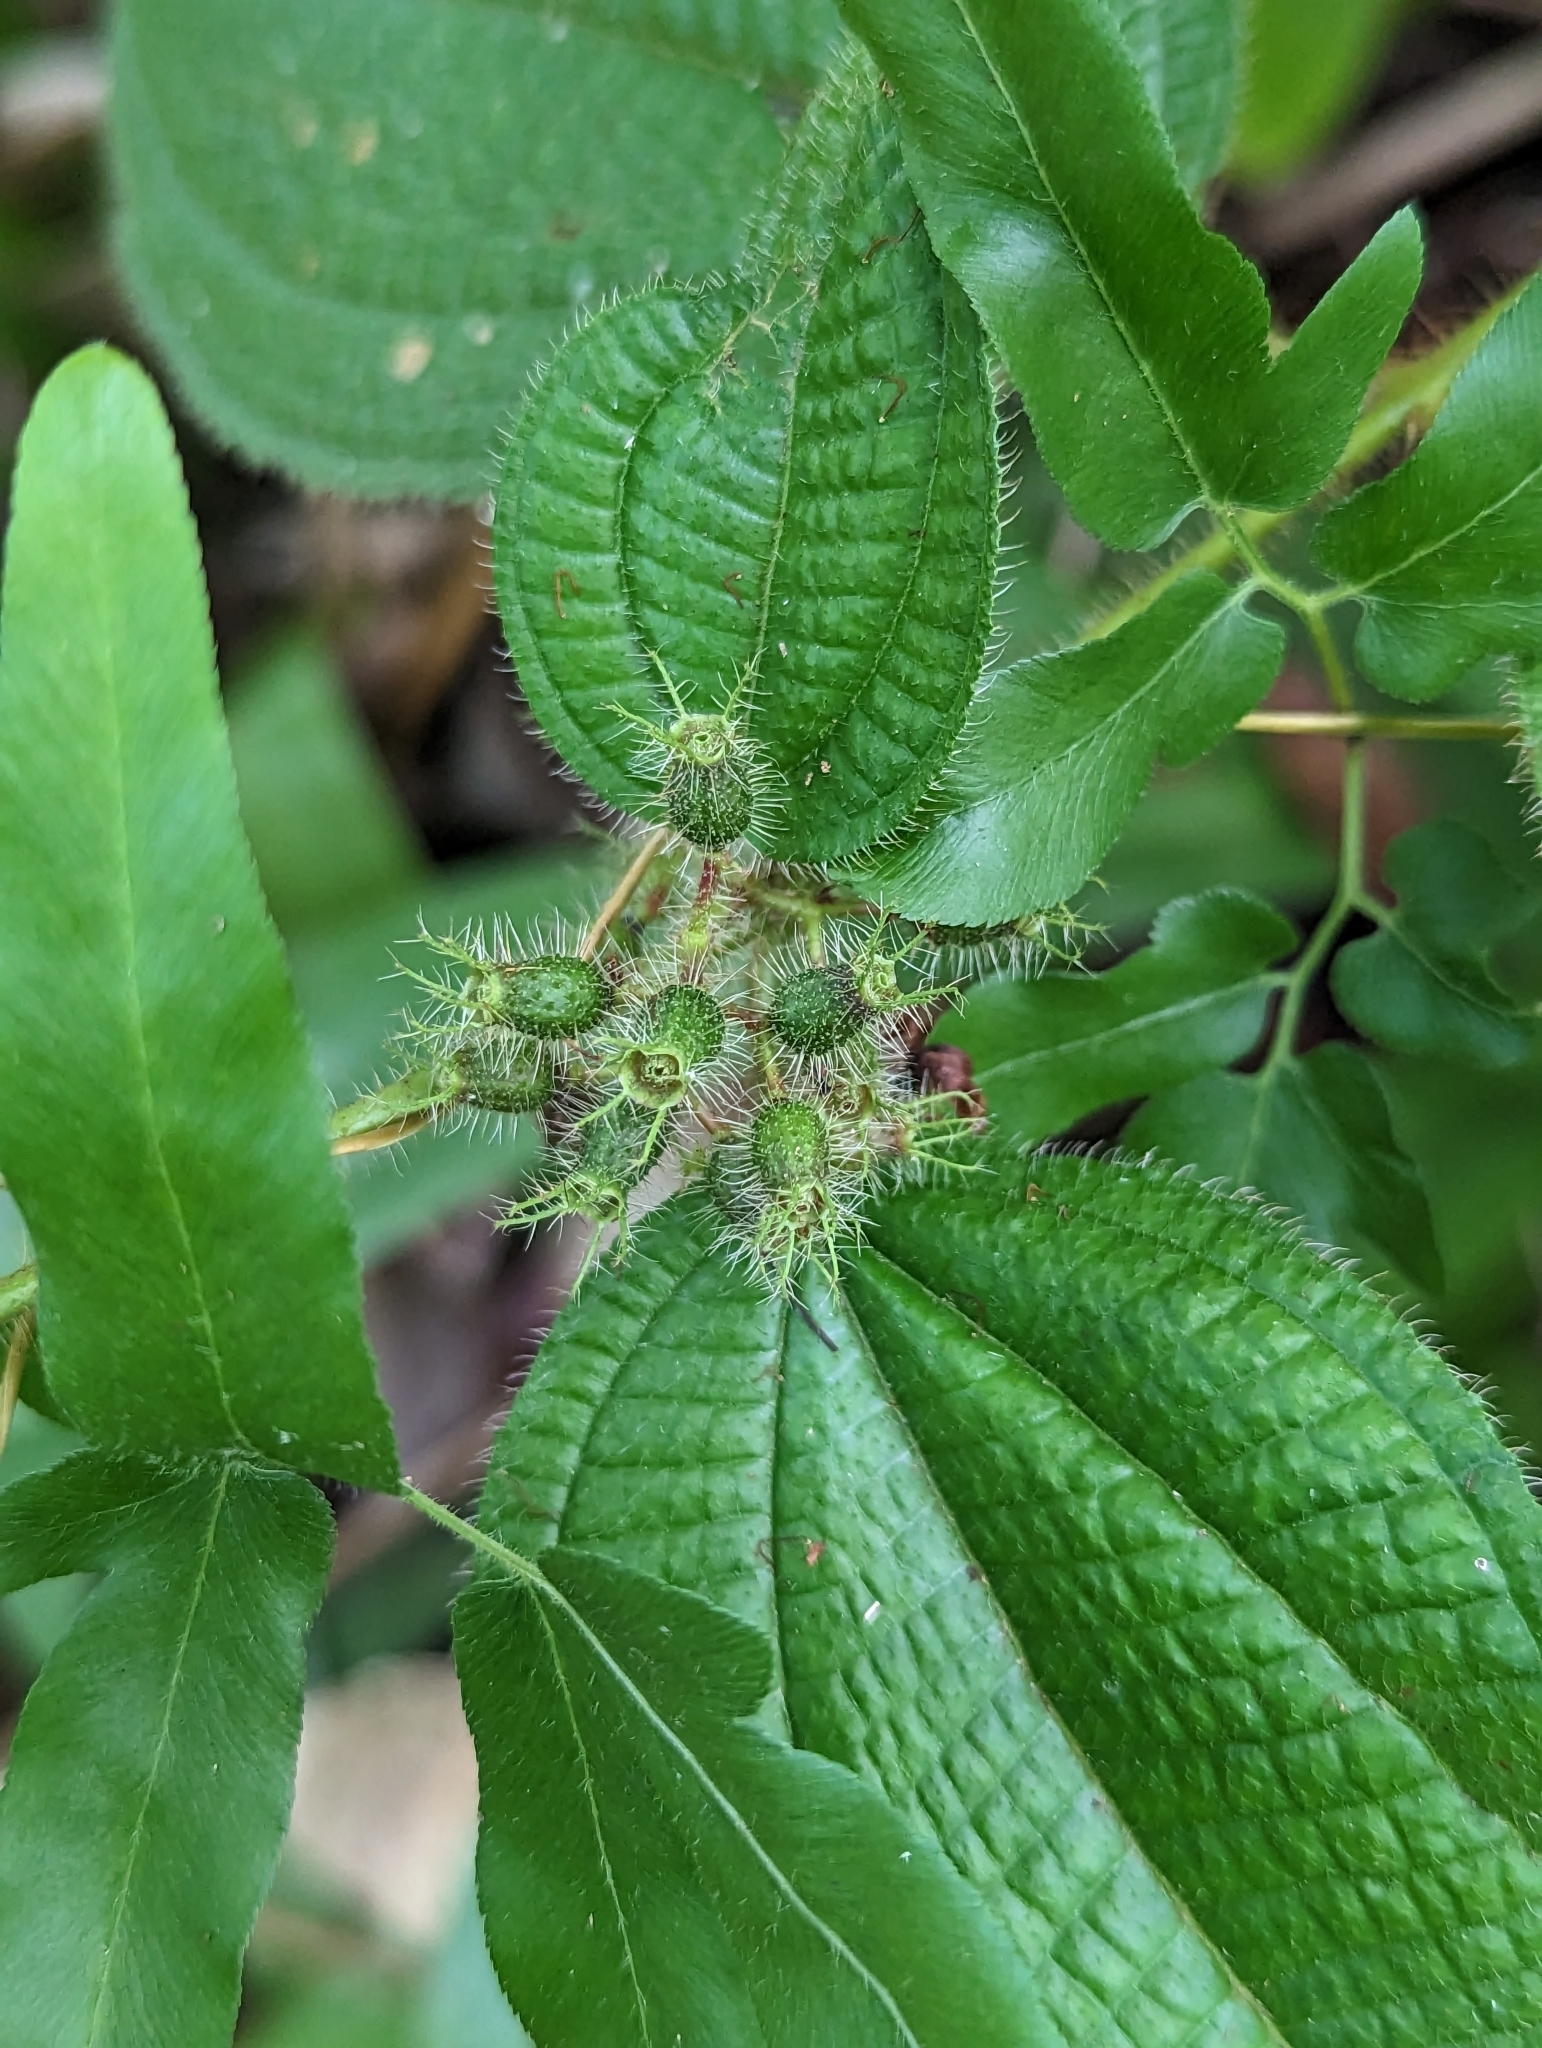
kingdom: Plantae
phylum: Tracheophyta
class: Magnoliopsida
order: Myrtales
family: Melastomataceae
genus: Miconia
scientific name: Miconia crenata
